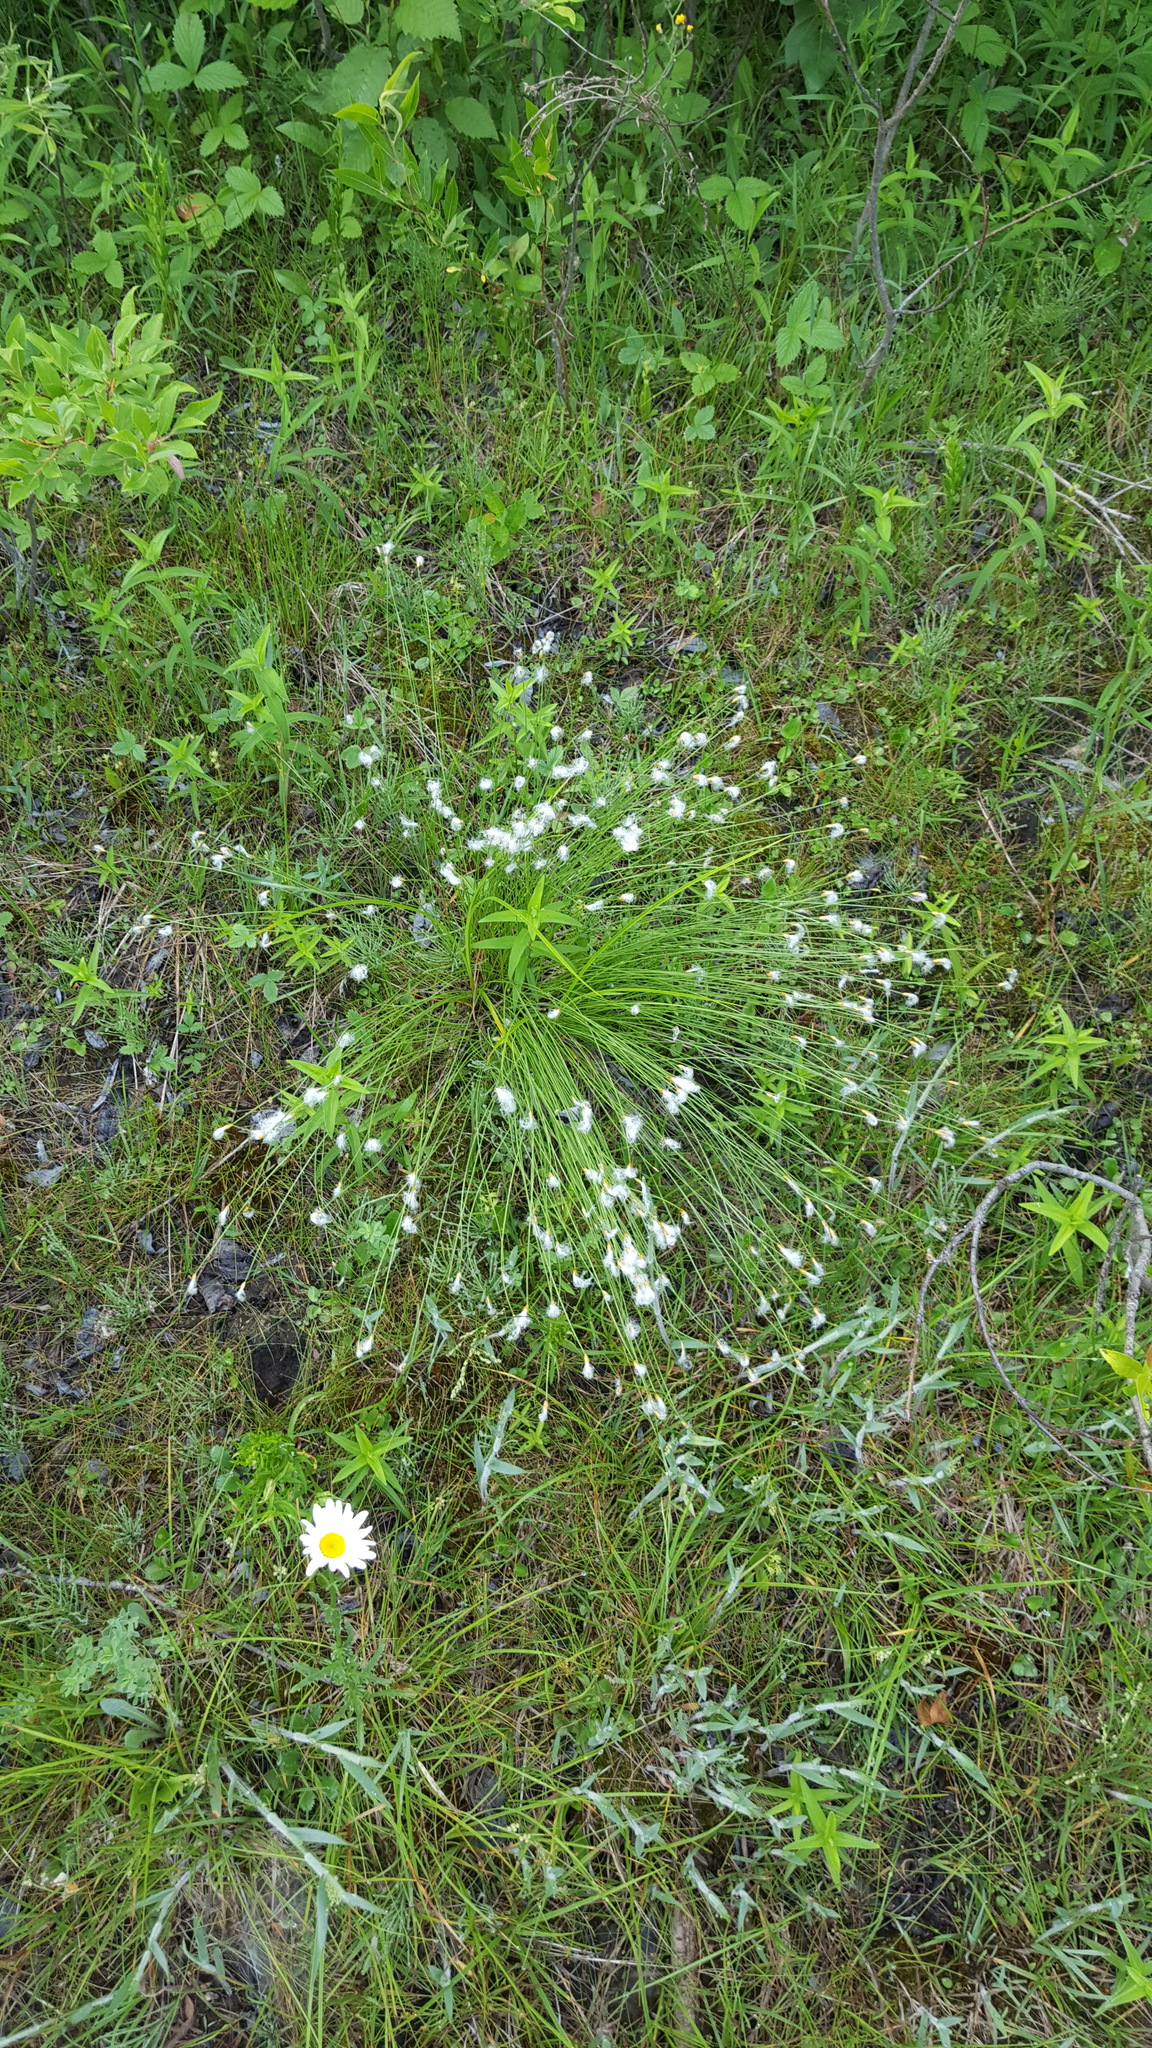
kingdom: Plantae
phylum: Tracheophyta
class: Liliopsida
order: Poales
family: Cyperaceae
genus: Trichophorum
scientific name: Trichophorum alpinum
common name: Alpine bulrush
